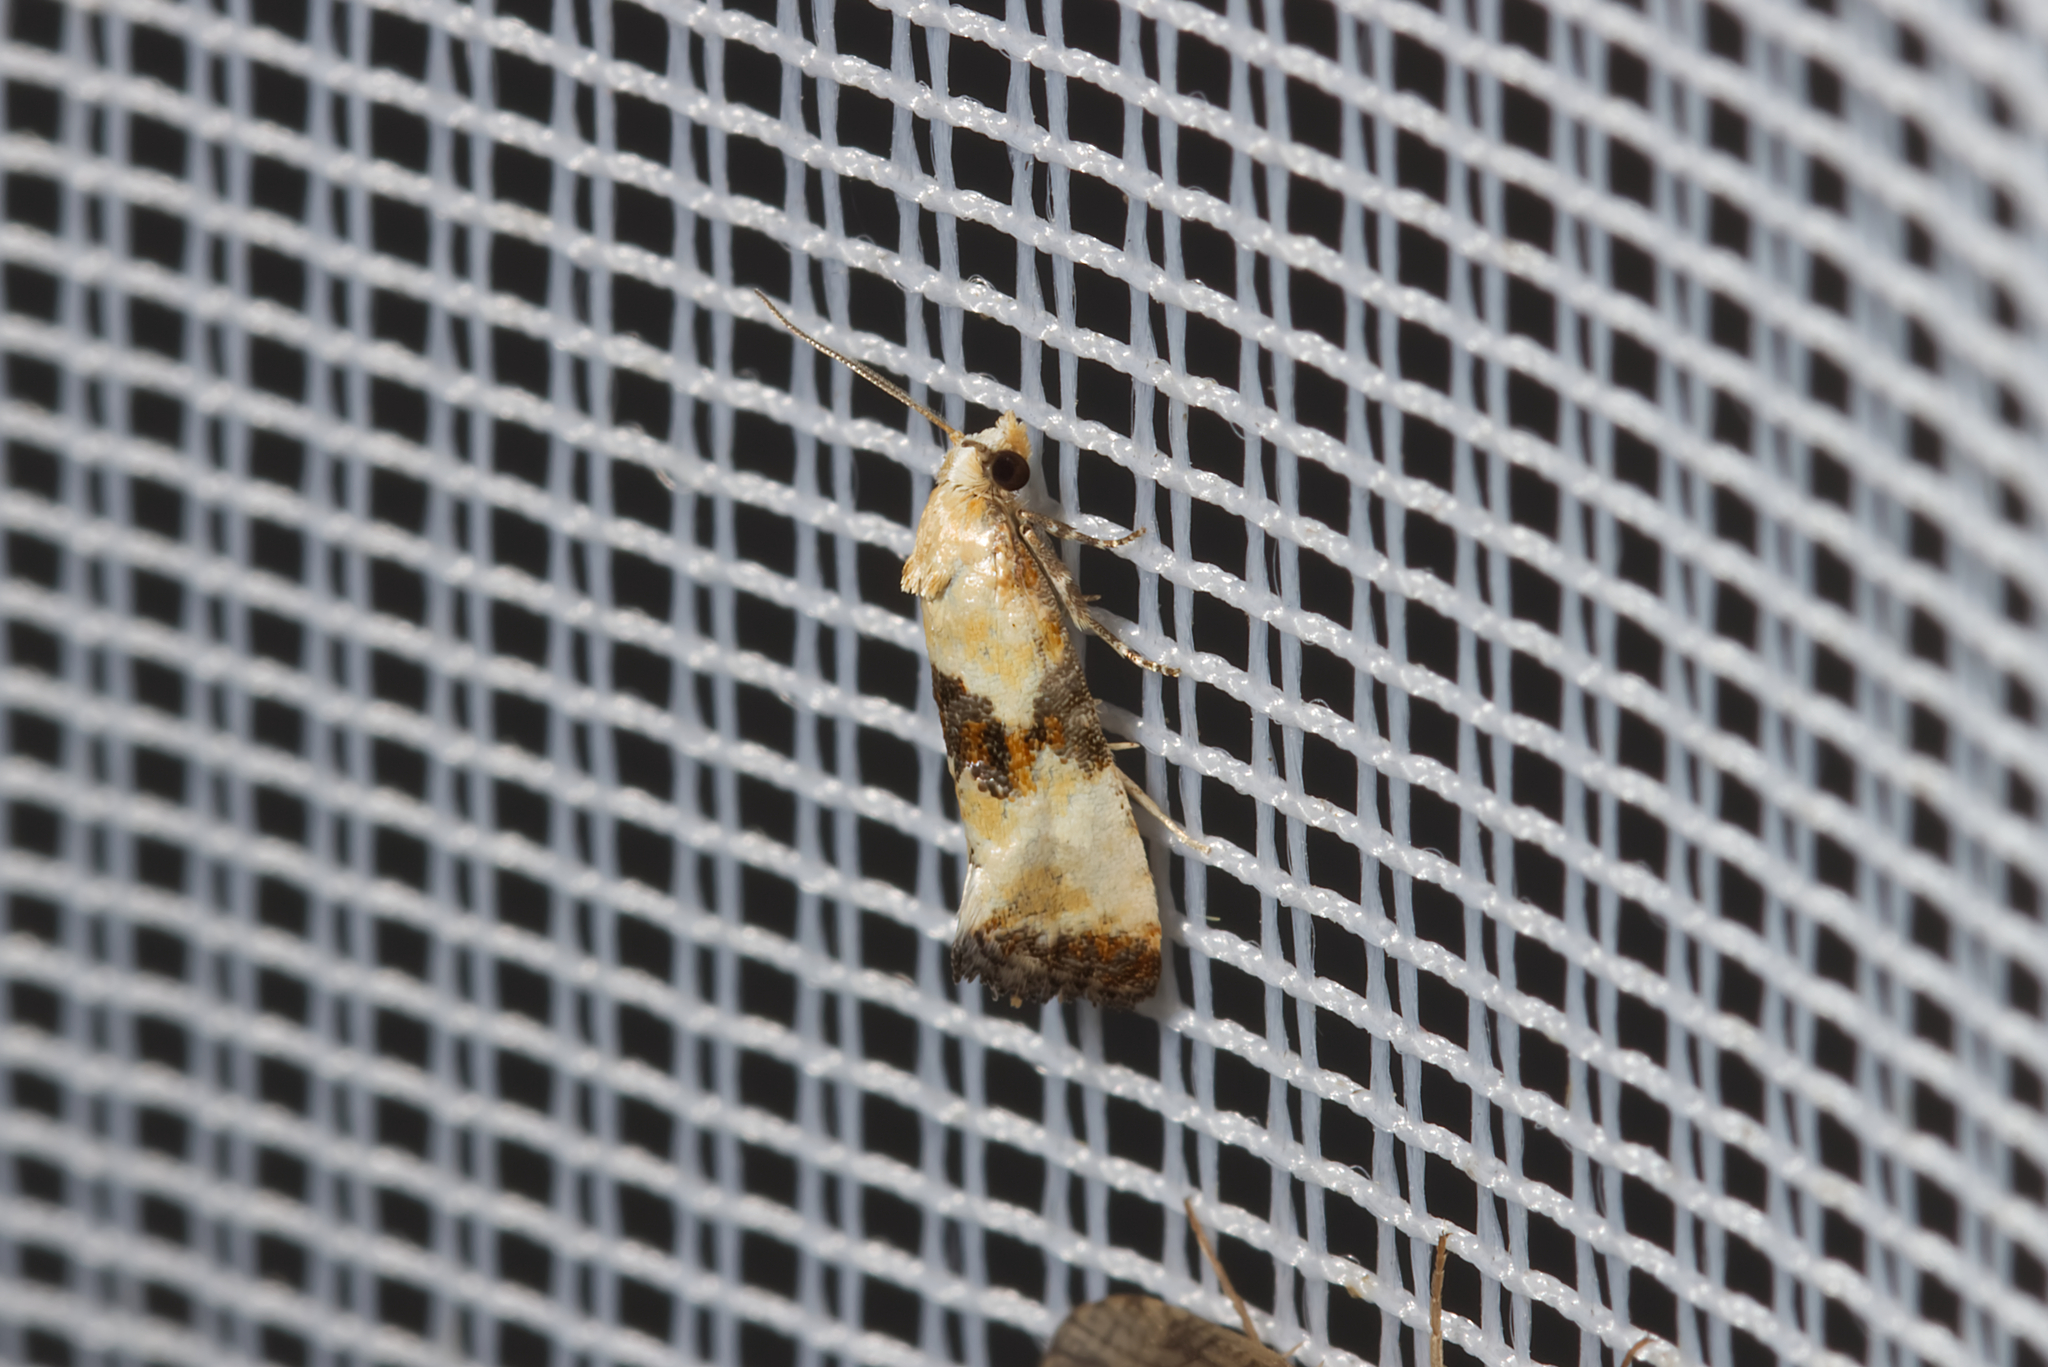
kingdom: Animalia
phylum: Arthropoda
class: Insecta
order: Lepidoptera
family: Tortricidae
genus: Eupoecilia
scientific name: Eupoecilia angustana
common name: Marbled conch
